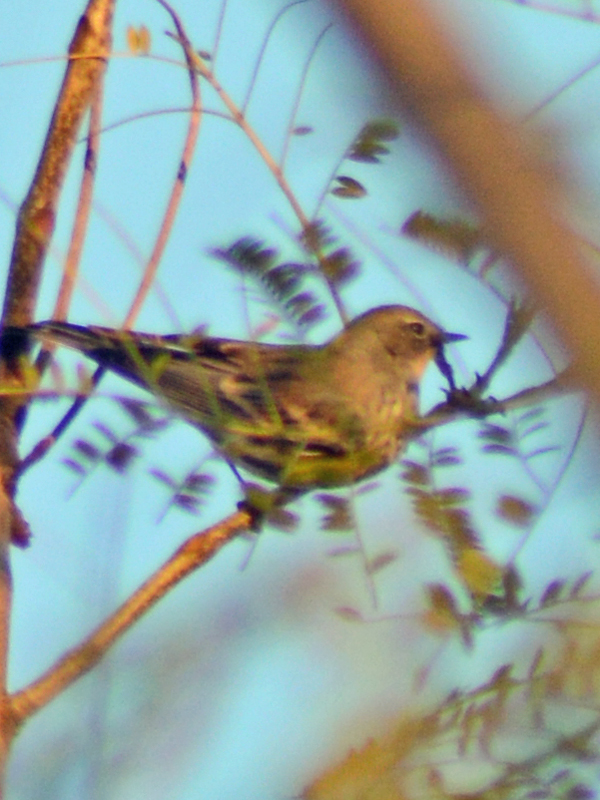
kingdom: Animalia
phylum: Chordata
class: Aves
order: Passeriformes
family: Parulidae
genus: Setophaga
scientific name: Setophaga coronata
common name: Myrtle warbler
